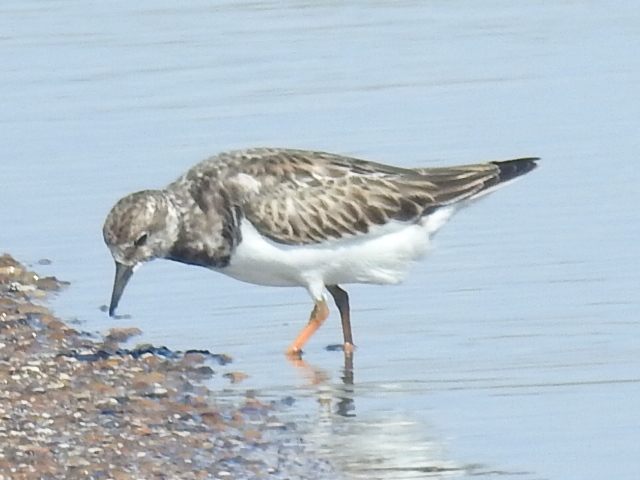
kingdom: Animalia
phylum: Chordata
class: Aves
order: Charadriiformes
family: Scolopacidae
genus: Arenaria
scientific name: Arenaria interpres
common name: Ruddy turnstone
